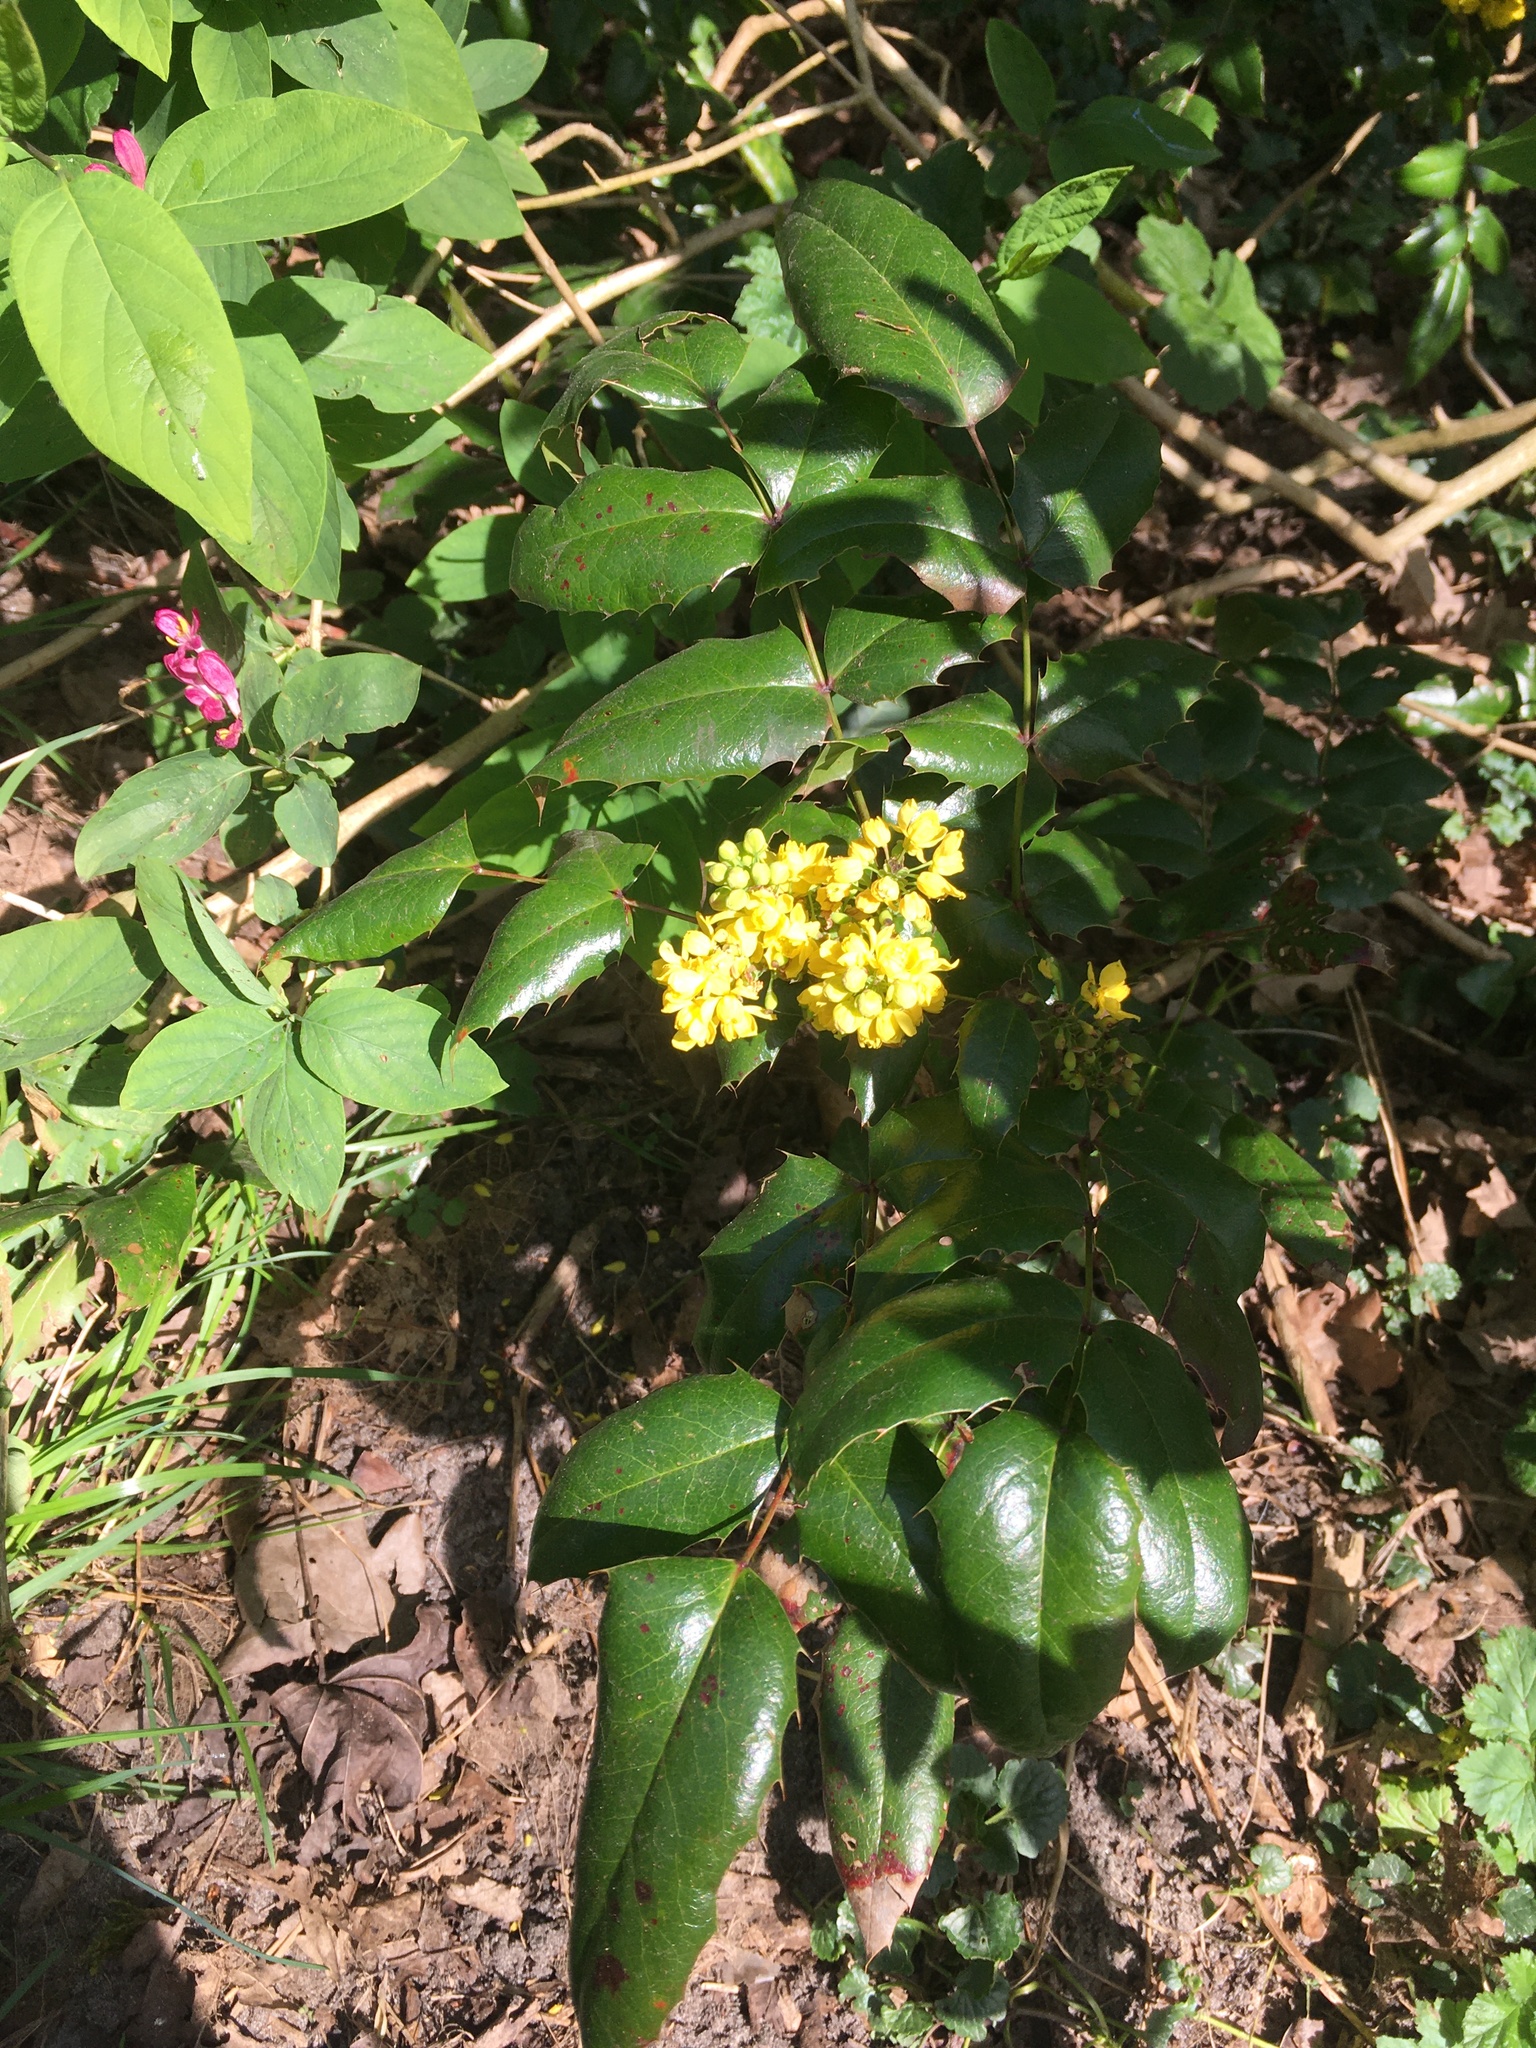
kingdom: Plantae
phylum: Tracheophyta
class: Magnoliopsida
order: Ranunculales
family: Berberidaceae
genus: Mahonia
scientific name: Mahonia aquifolium
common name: Oregon-grape
